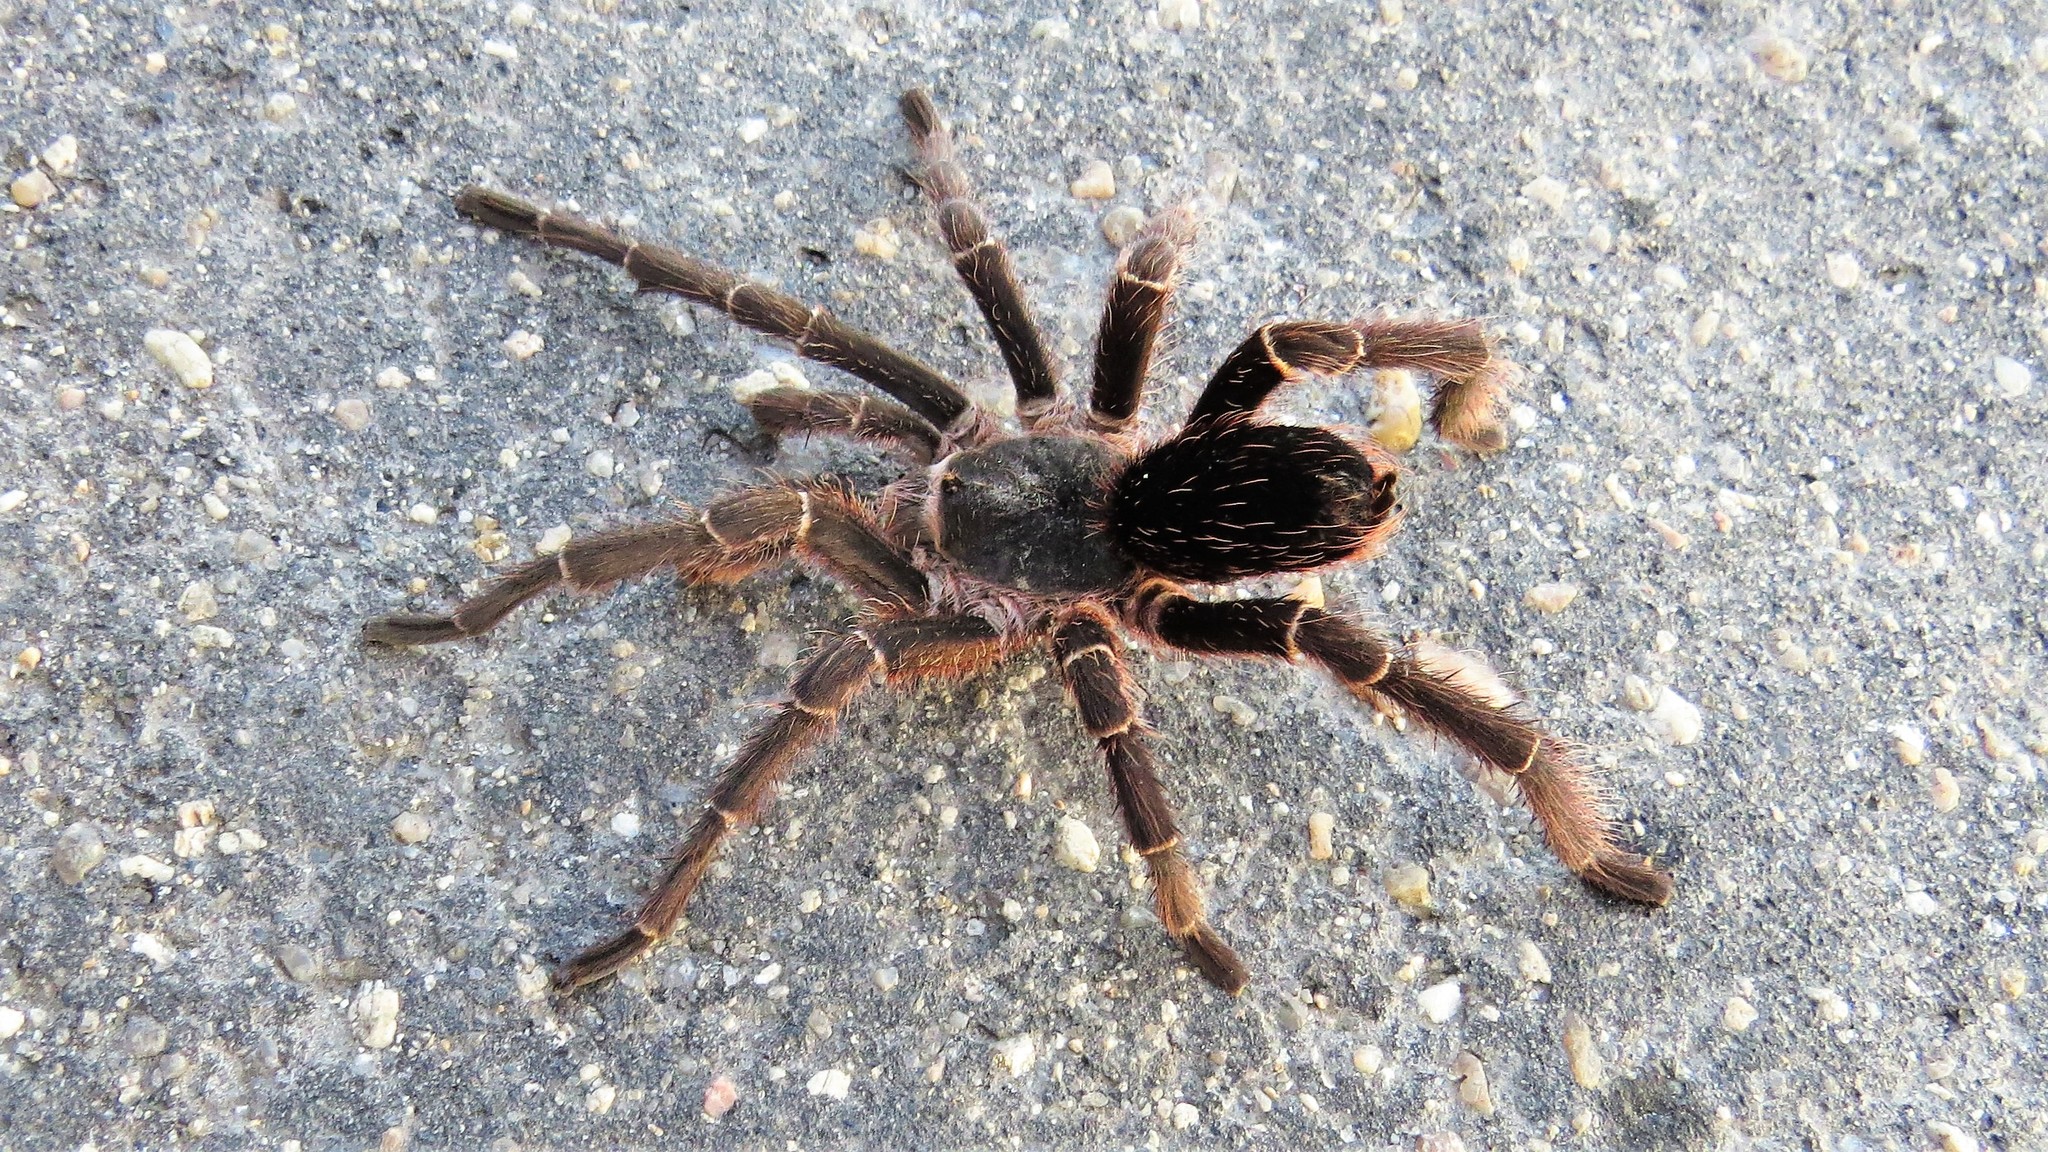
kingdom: Animalia
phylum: Arthropoda
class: Arachnida
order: Araneae
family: Theraphosidae
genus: Eupalaestrus
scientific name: Eupalaestrus weijenberghi
